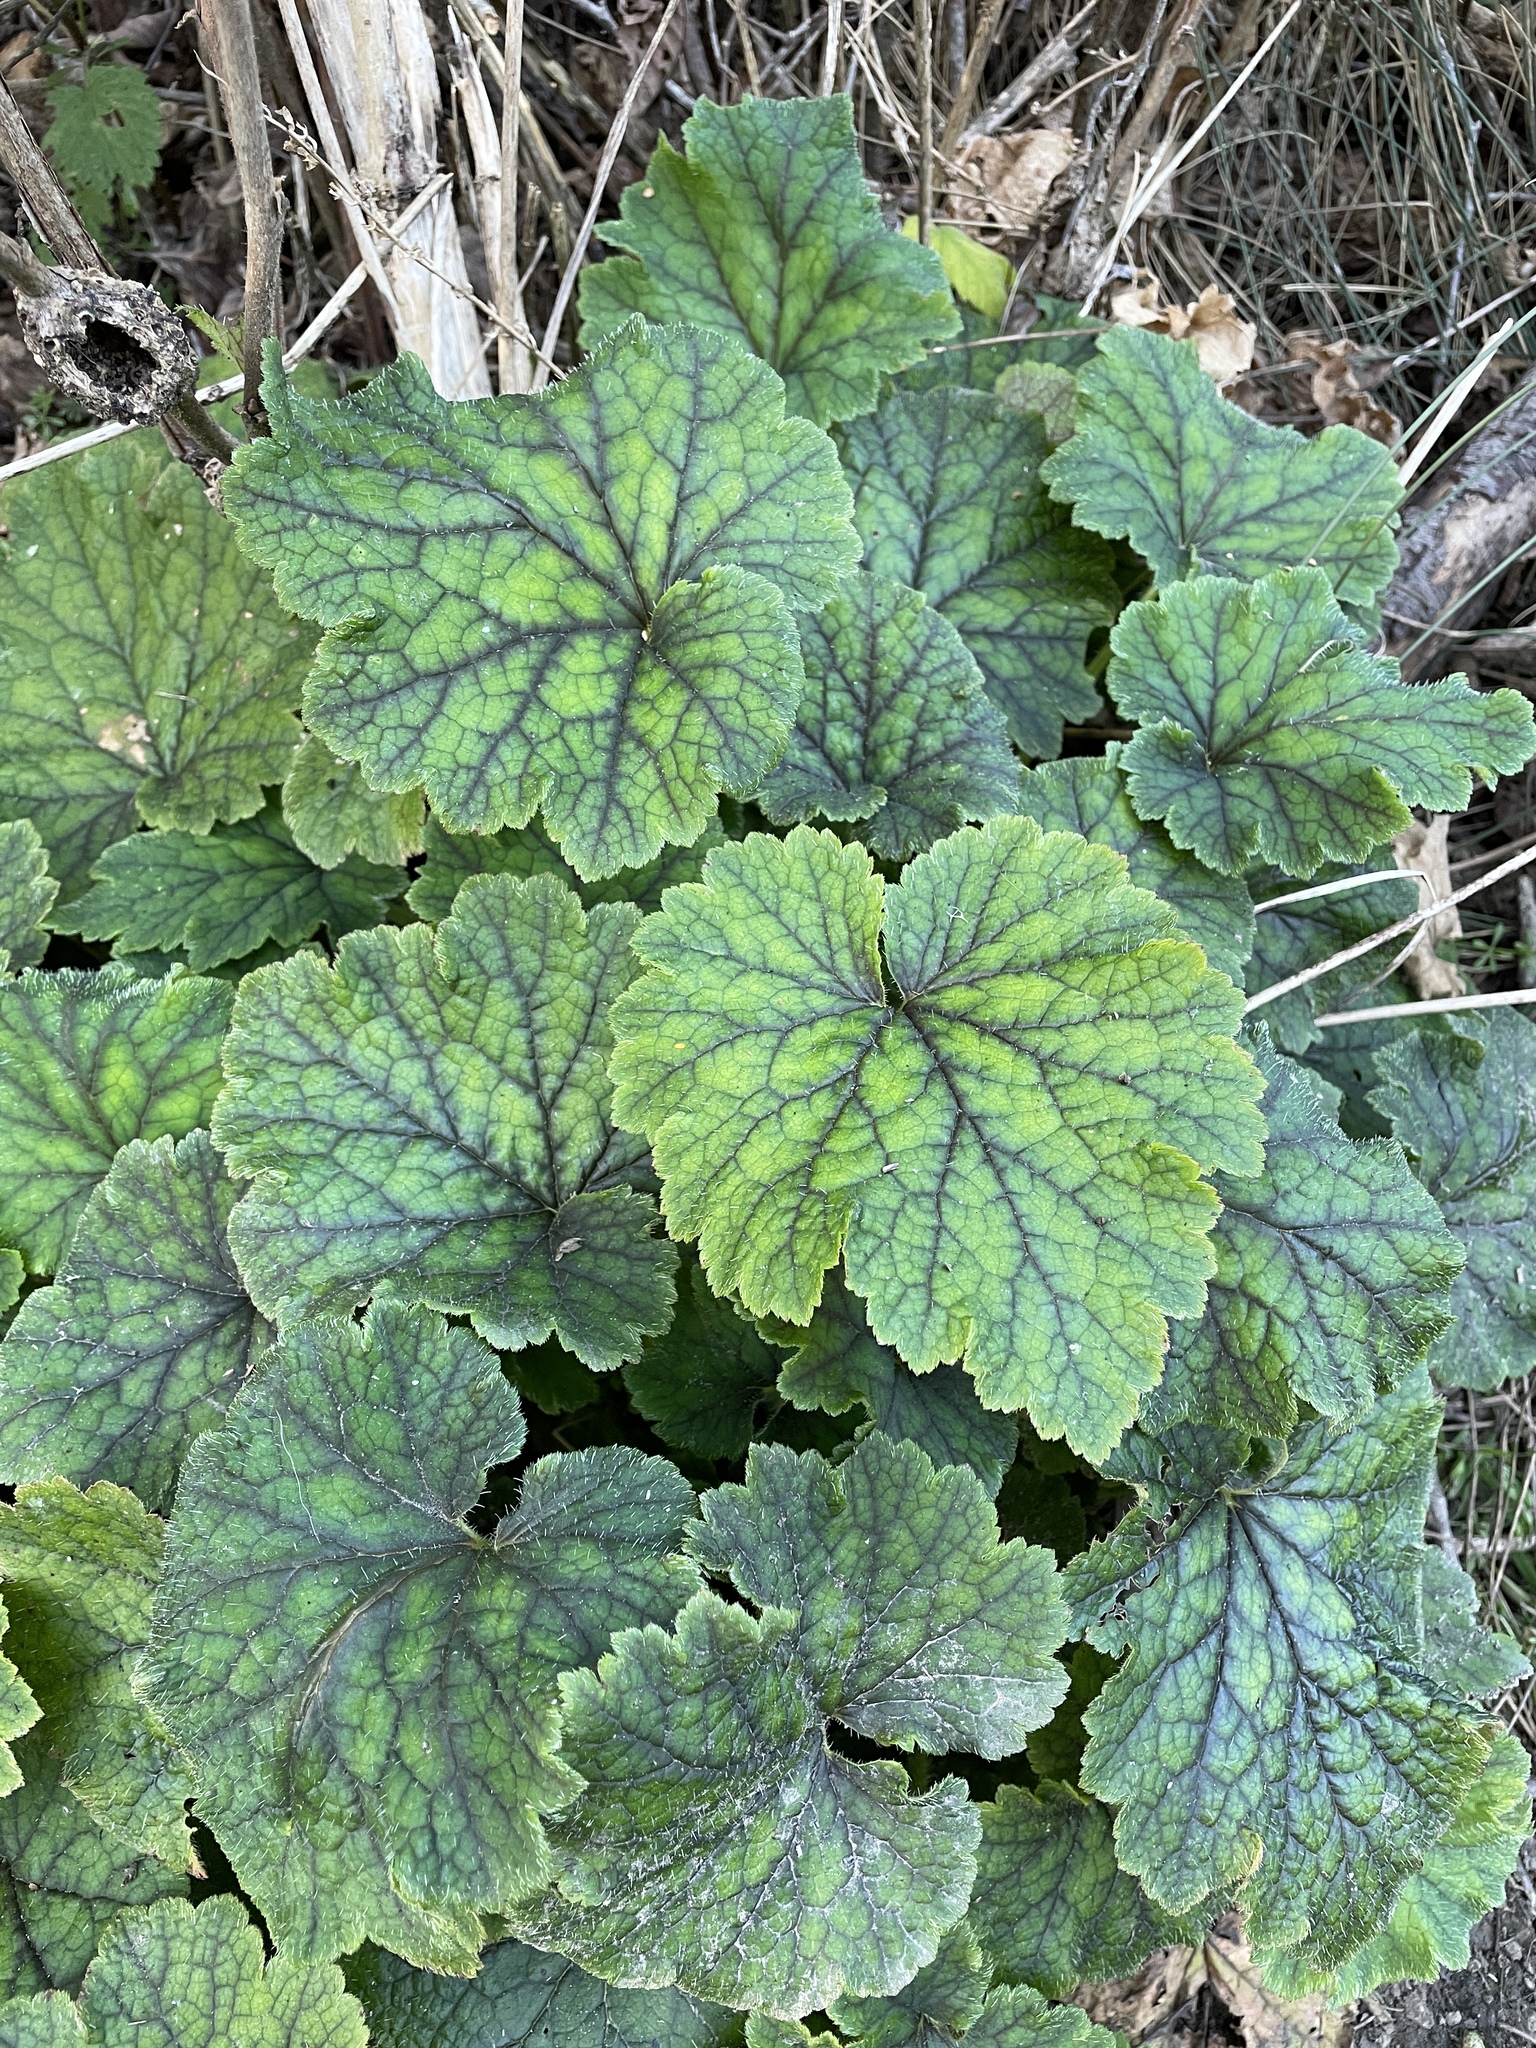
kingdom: Plantae
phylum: Tracheophyta
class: Magnoliopsida
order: Saxifragales
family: Saxifragaceae
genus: Tellima
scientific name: Tellima grandiflora
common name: Fringecups
